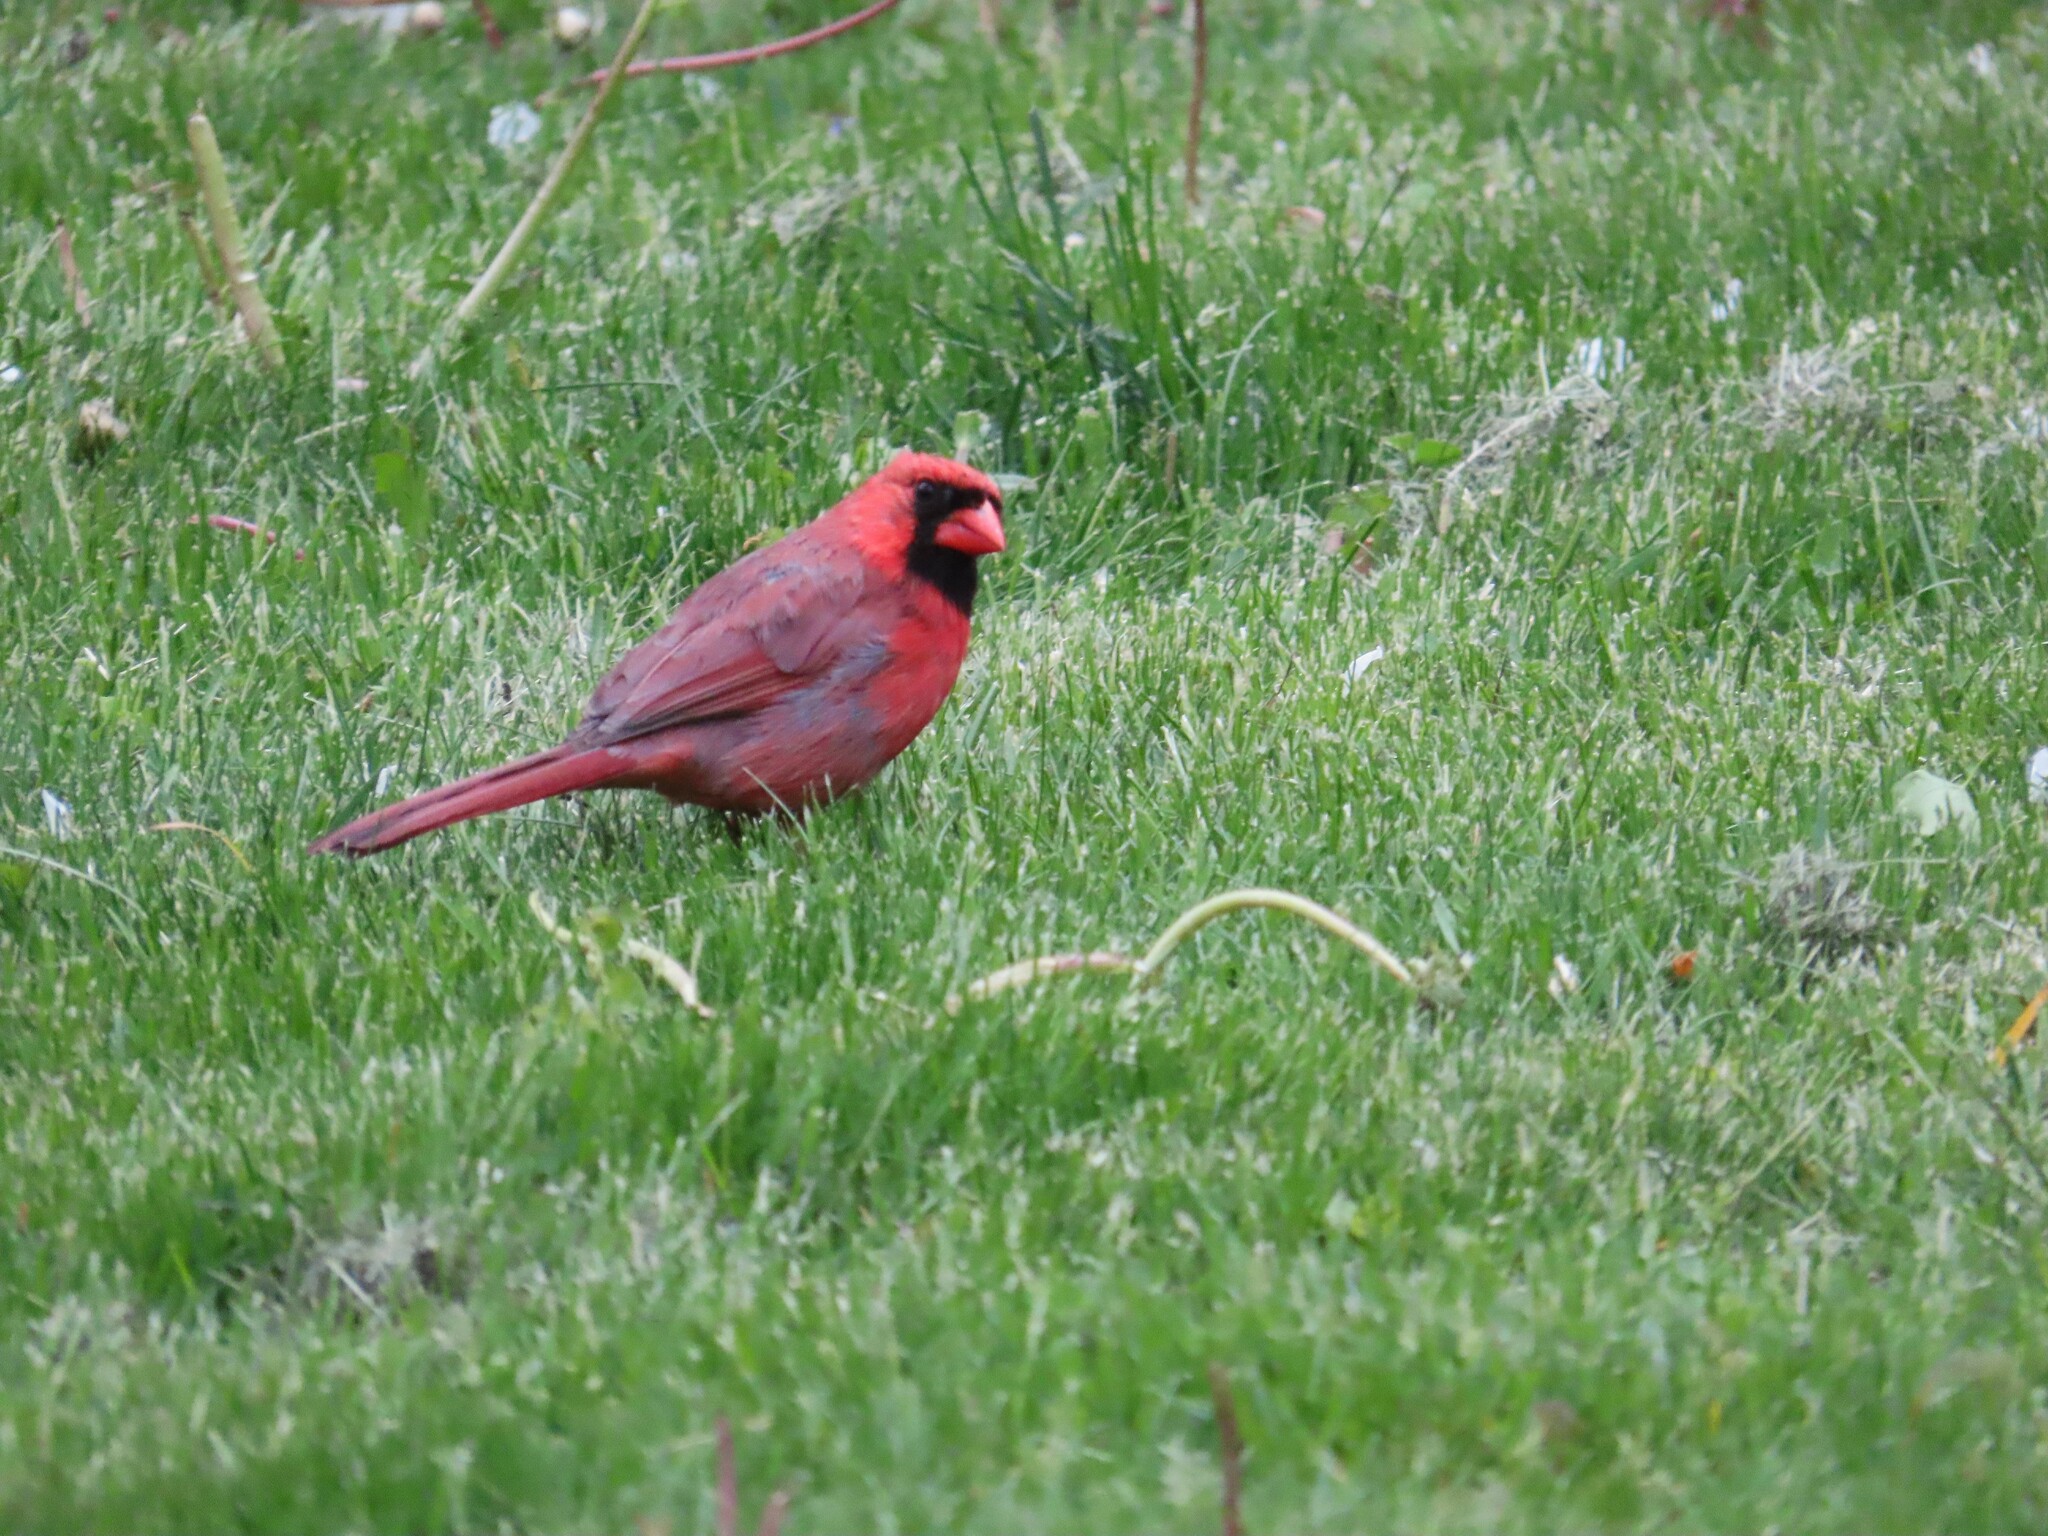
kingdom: Animalia
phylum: Chordata
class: Aves
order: Passeriformes
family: Cardinalidae
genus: Cardinalis
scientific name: Cardinalis cardinalis
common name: Northern cardinal
